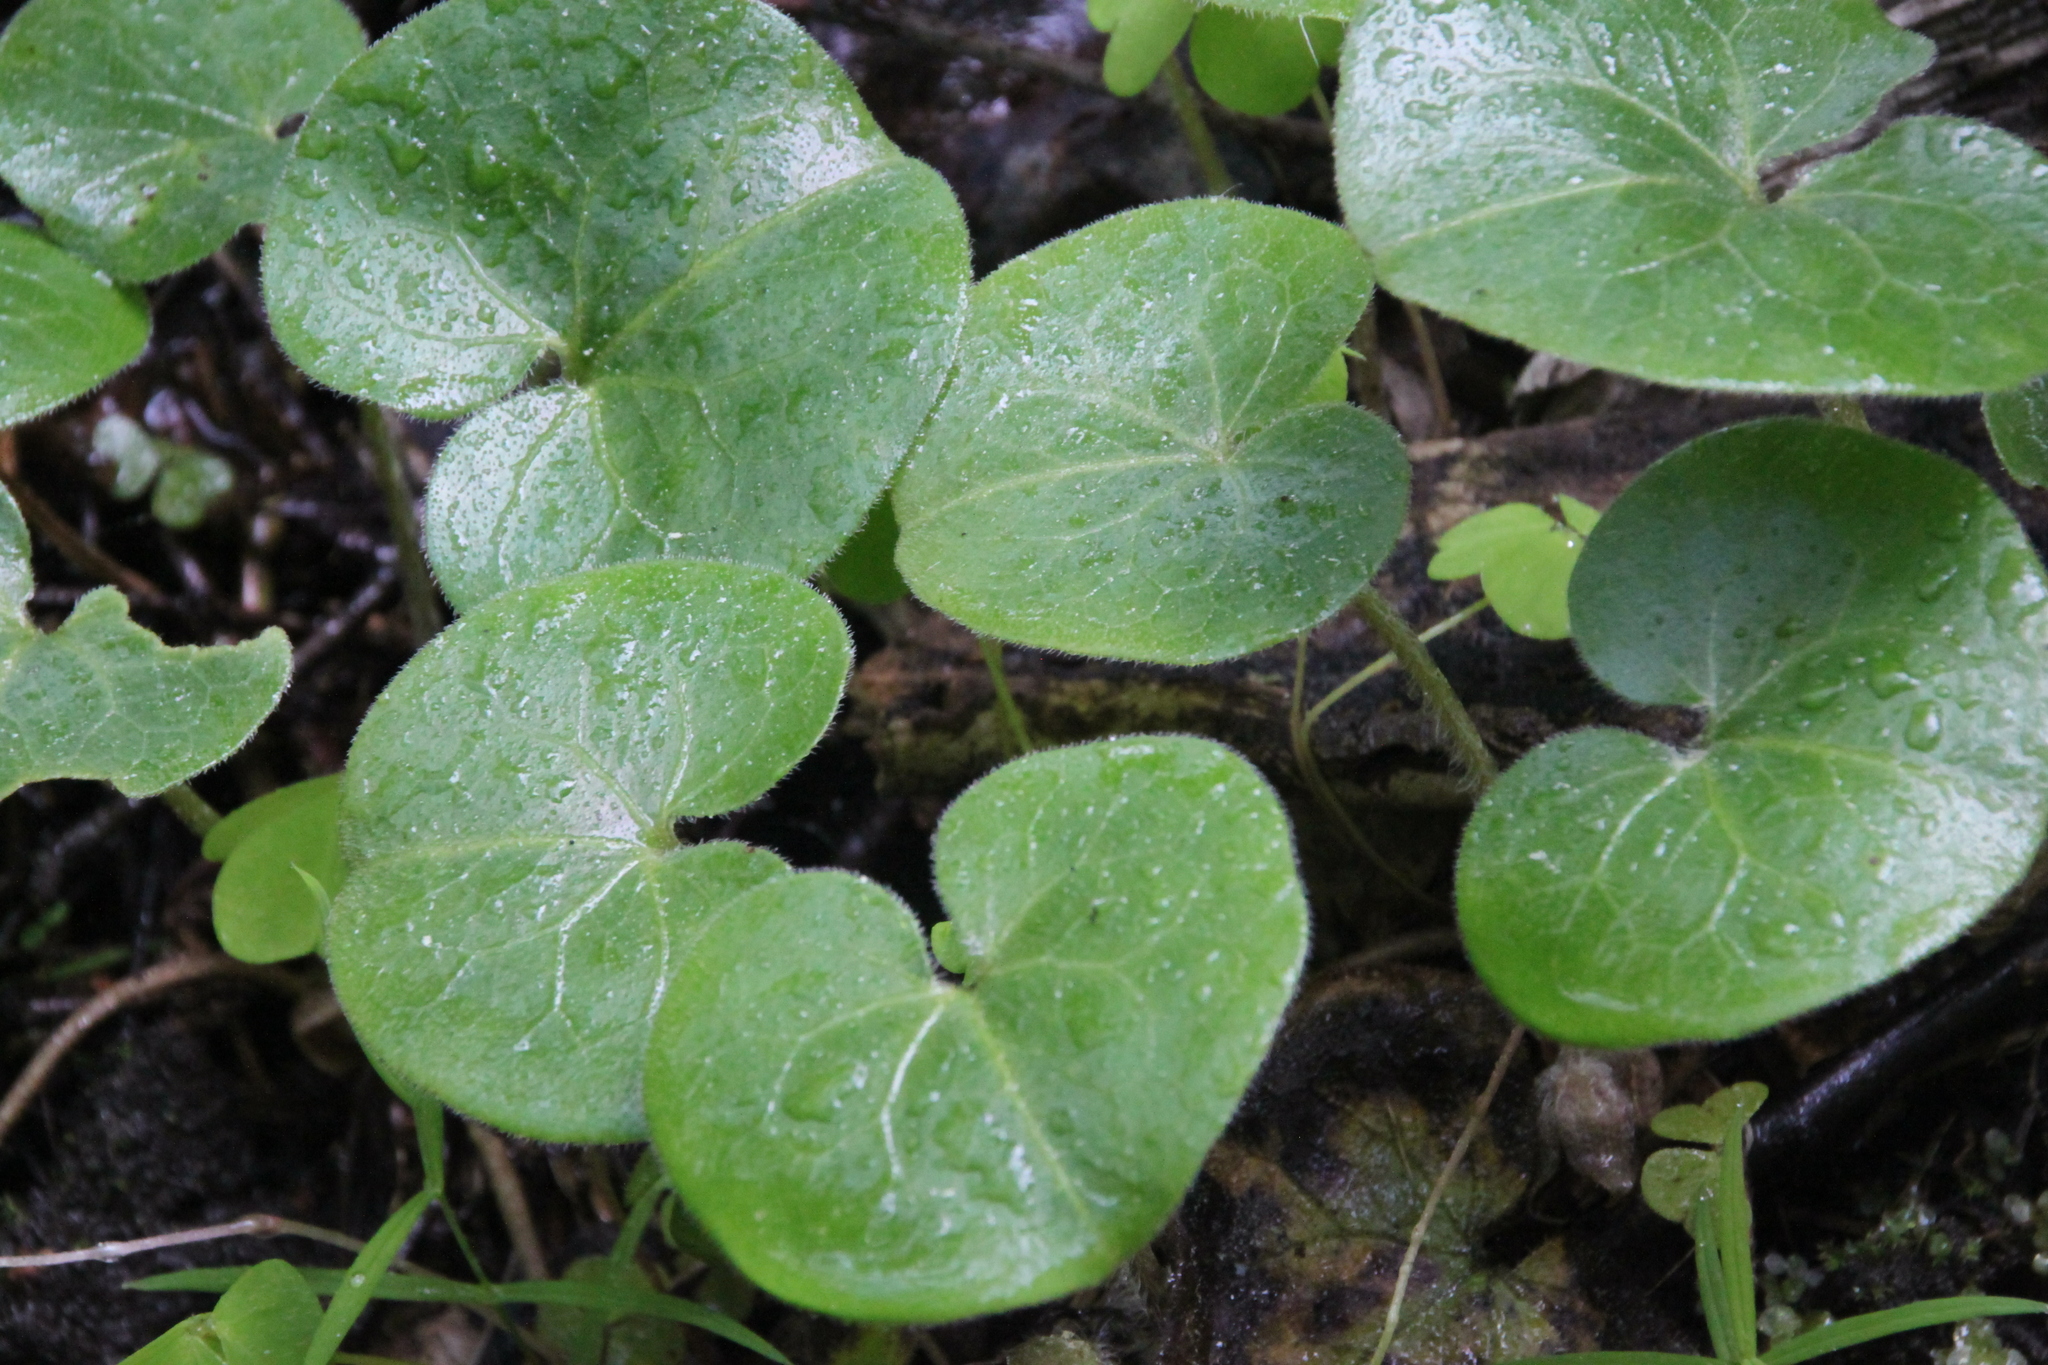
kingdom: Plantae
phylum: Tracheophyta
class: Magnoliopsida
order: Piperales
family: Aristolochiaceae
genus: Asarum
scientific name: Asarum europaeum
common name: Asarabacca
